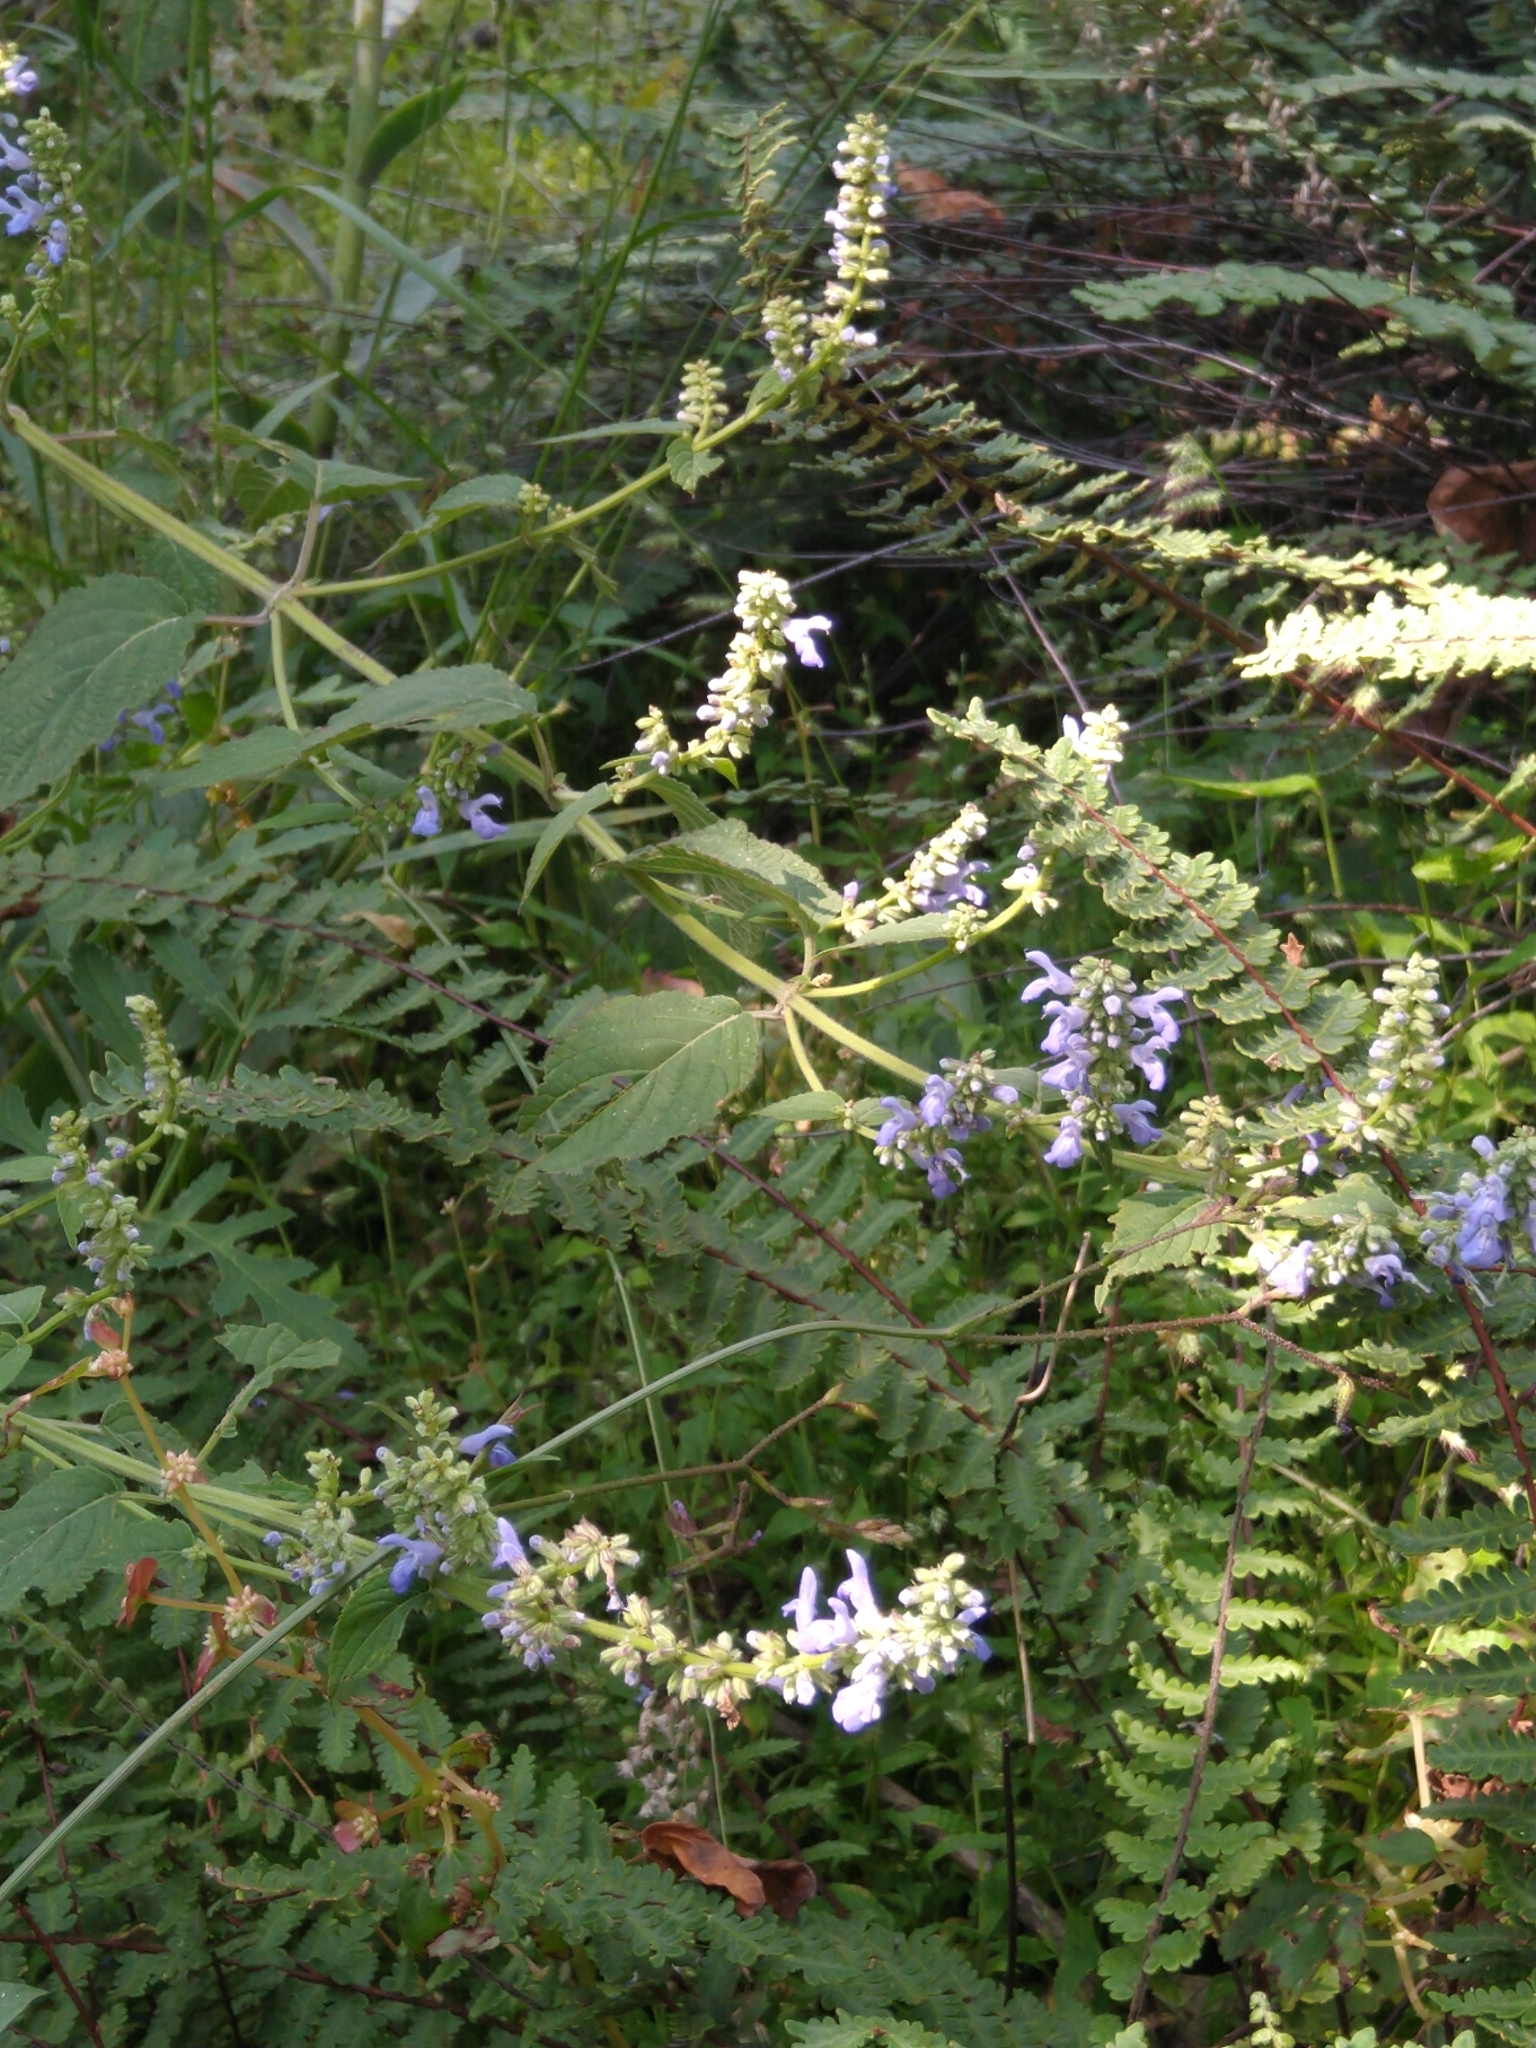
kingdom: Plantae
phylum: Tracheophyta
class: Magnoliopsida
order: Lamiales
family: Lamiaceae
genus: Salvia
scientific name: Salvia polystachia
